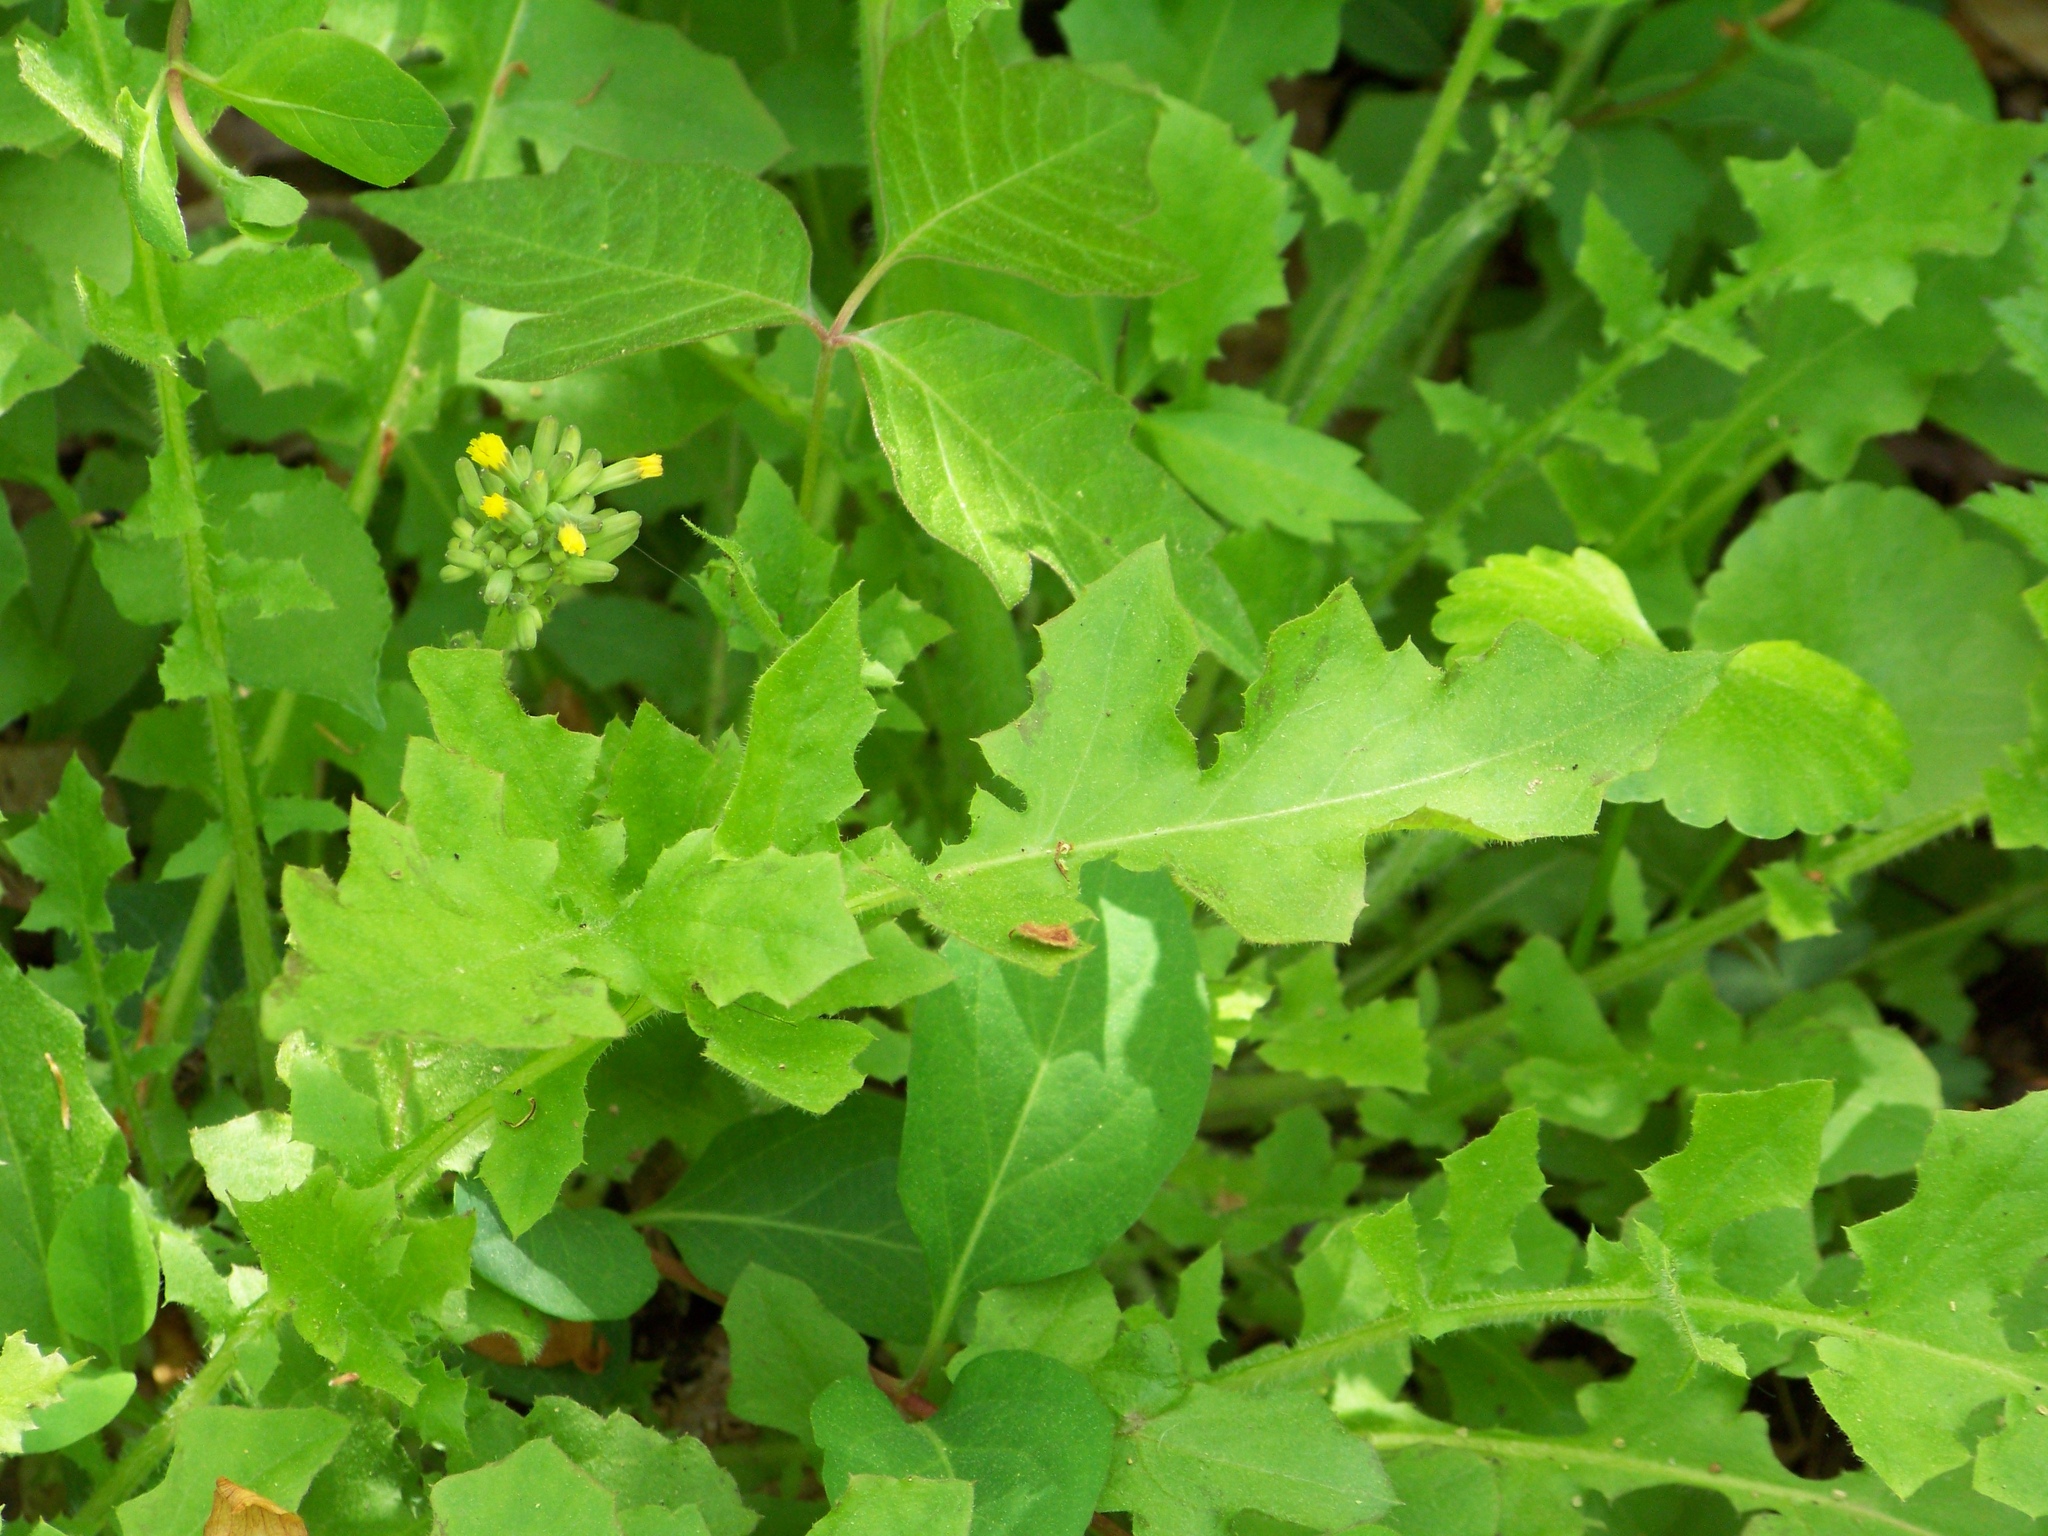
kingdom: Plantae
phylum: Tracheophyta
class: Magnoliopsida
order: Asterales
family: Asteraceae
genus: Youngia
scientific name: Youngia japonica
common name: Oriental false hawksbeard
